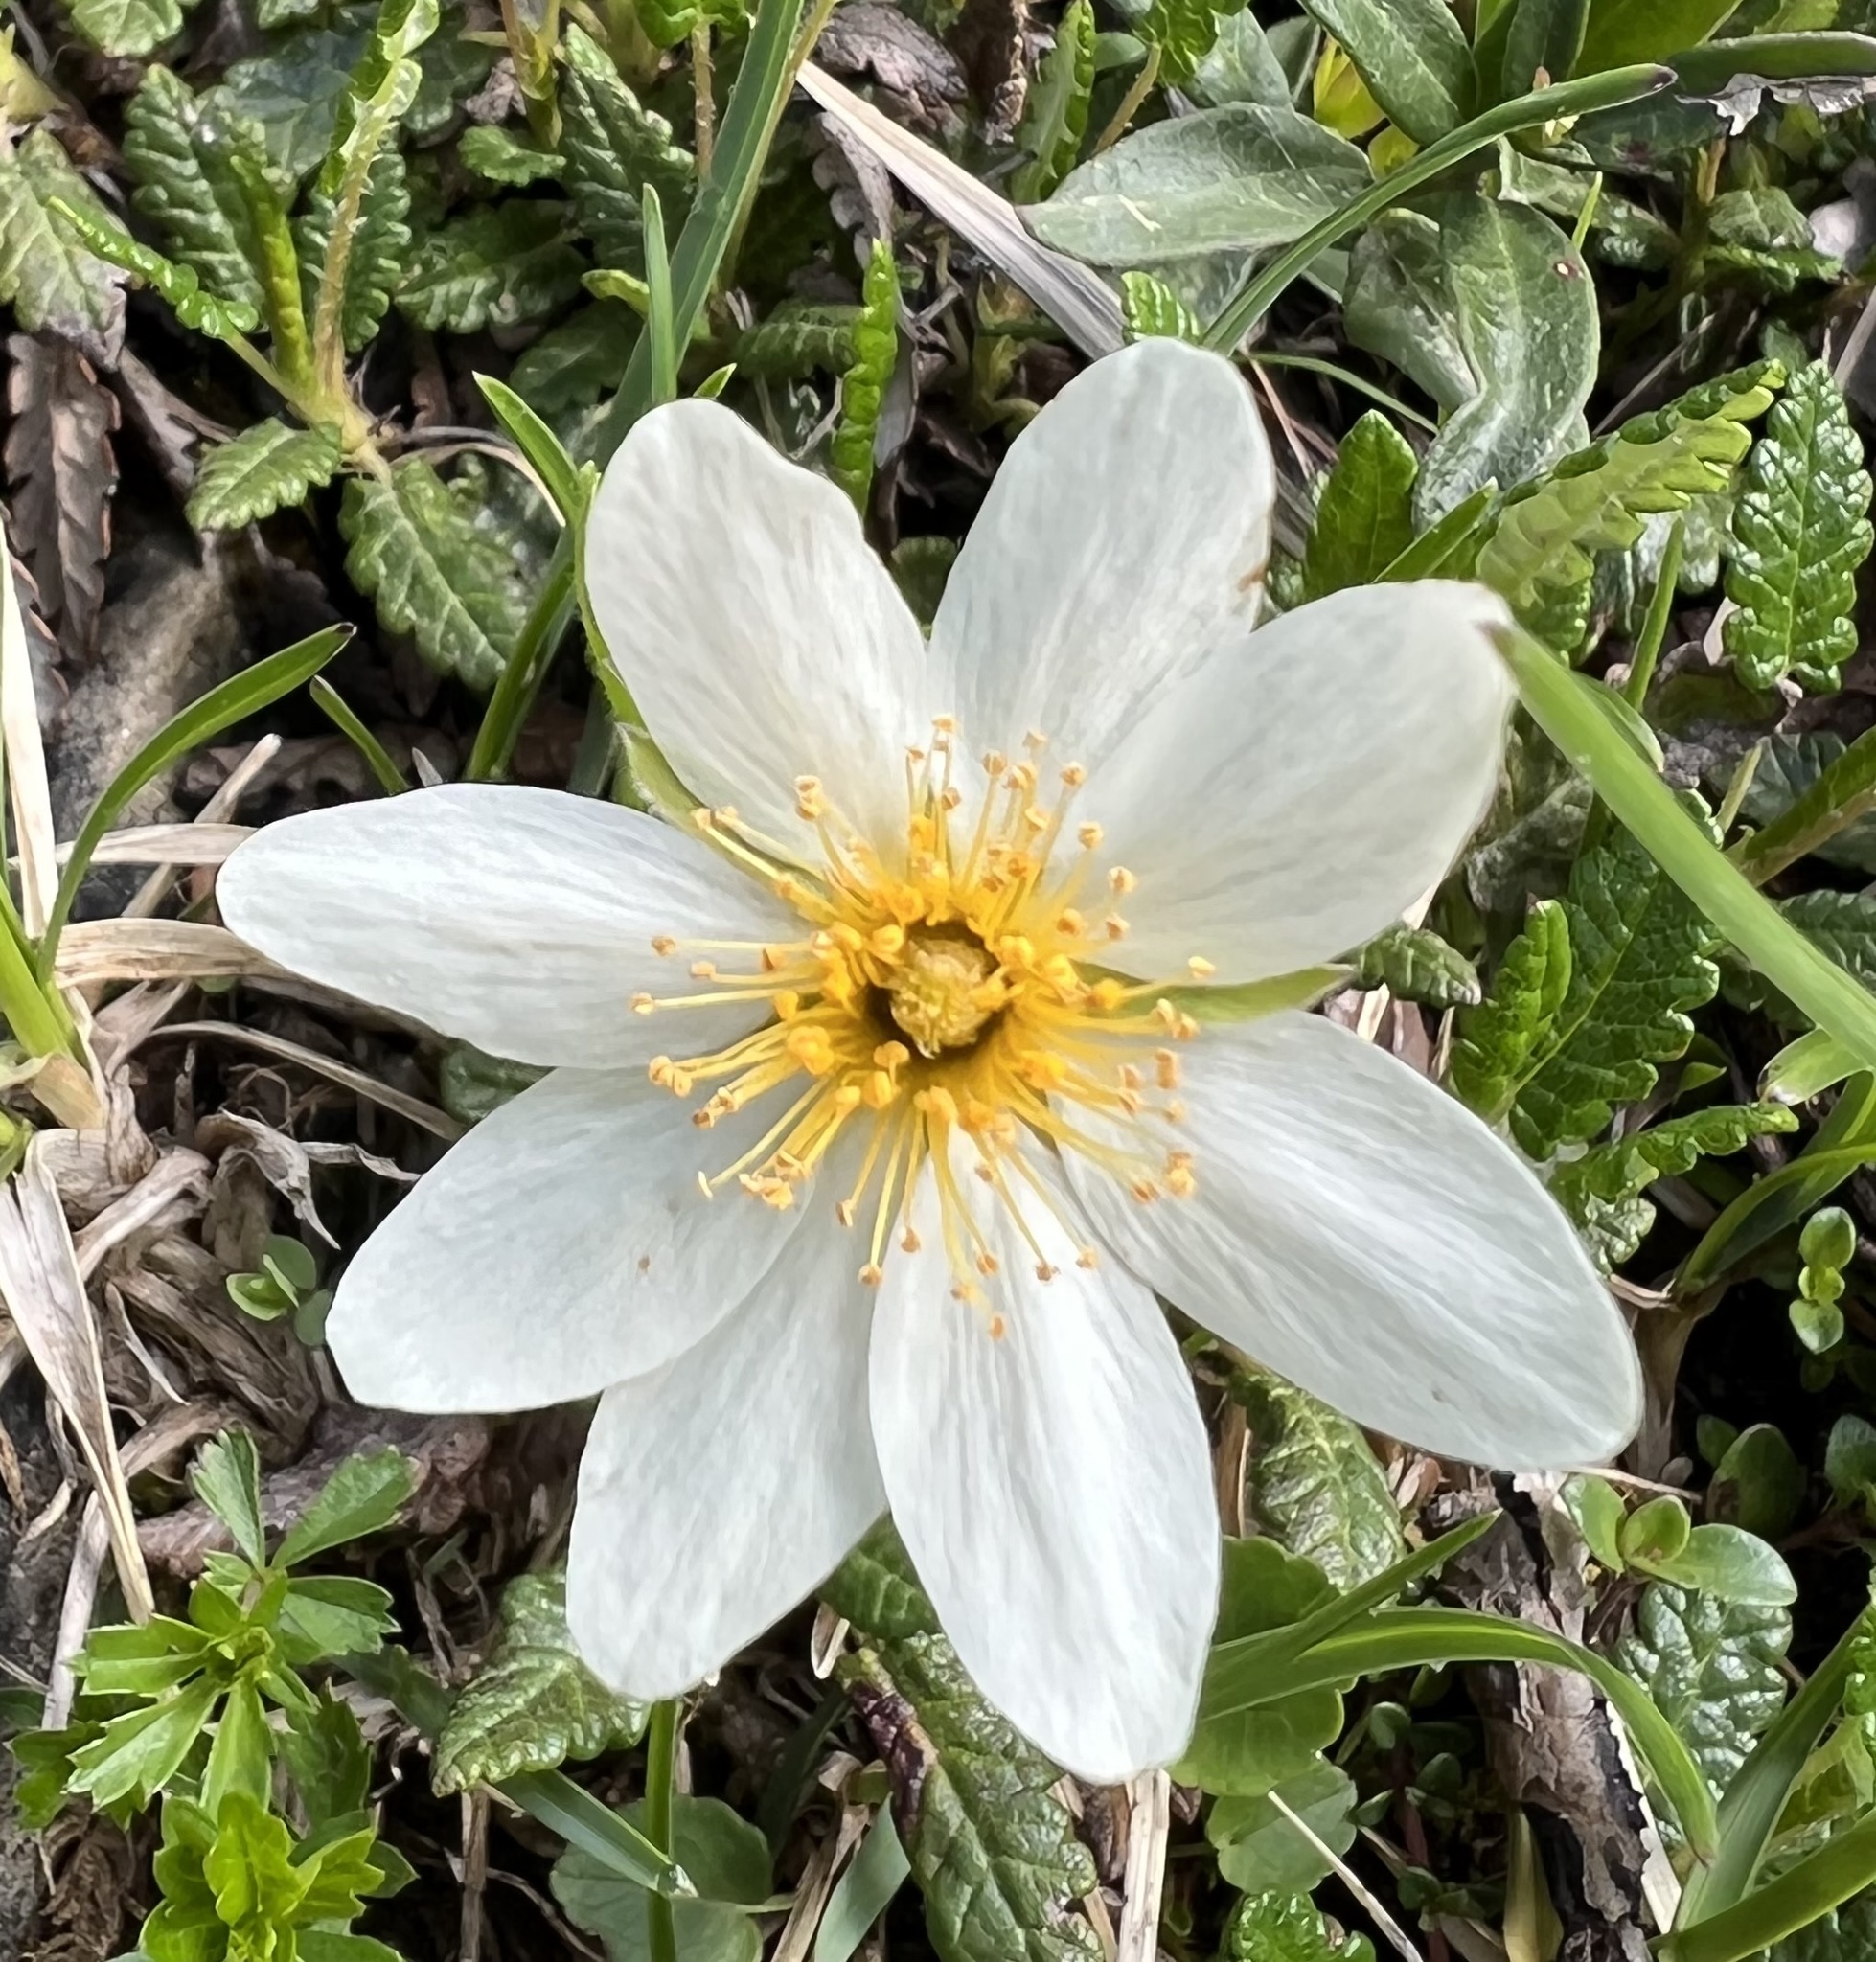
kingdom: Plantae
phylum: Tracheophyta
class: Magnoliopsida
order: Rosales
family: Rosaceae
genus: Dryas
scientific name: Dryas octopetala
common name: Eight-petal mountain-avens
